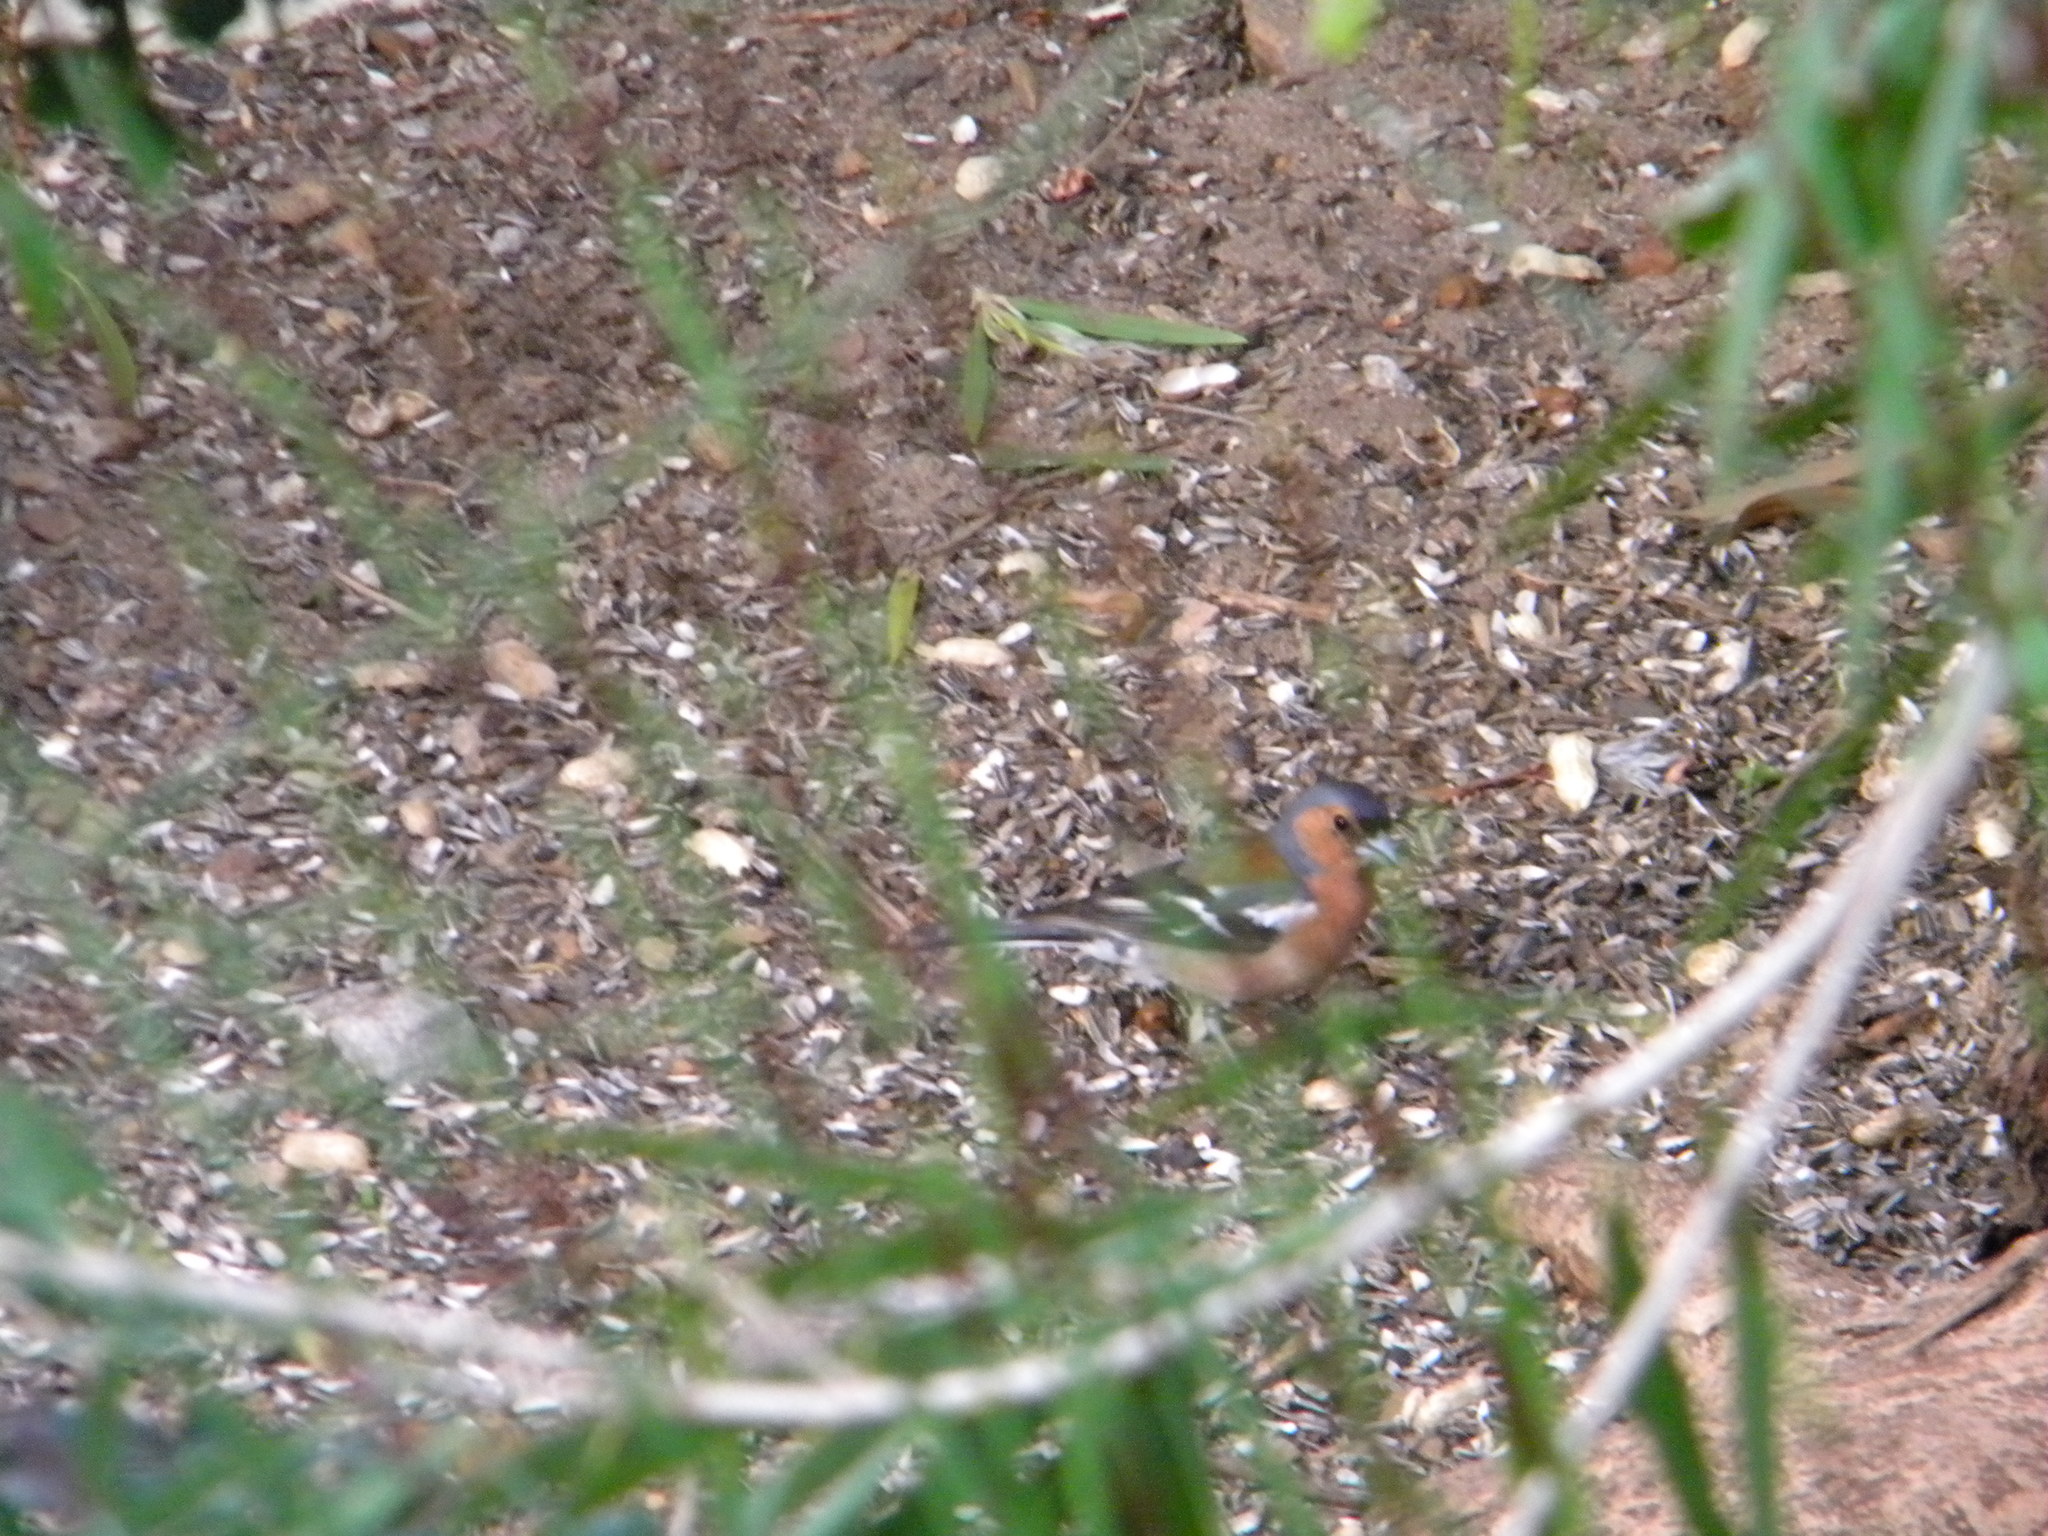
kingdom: Animalia
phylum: Chordata
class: Aves
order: Passeriformes
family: Fringillidae
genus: Fringilla
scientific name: Fringilla coelebs
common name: Common chaffinch
